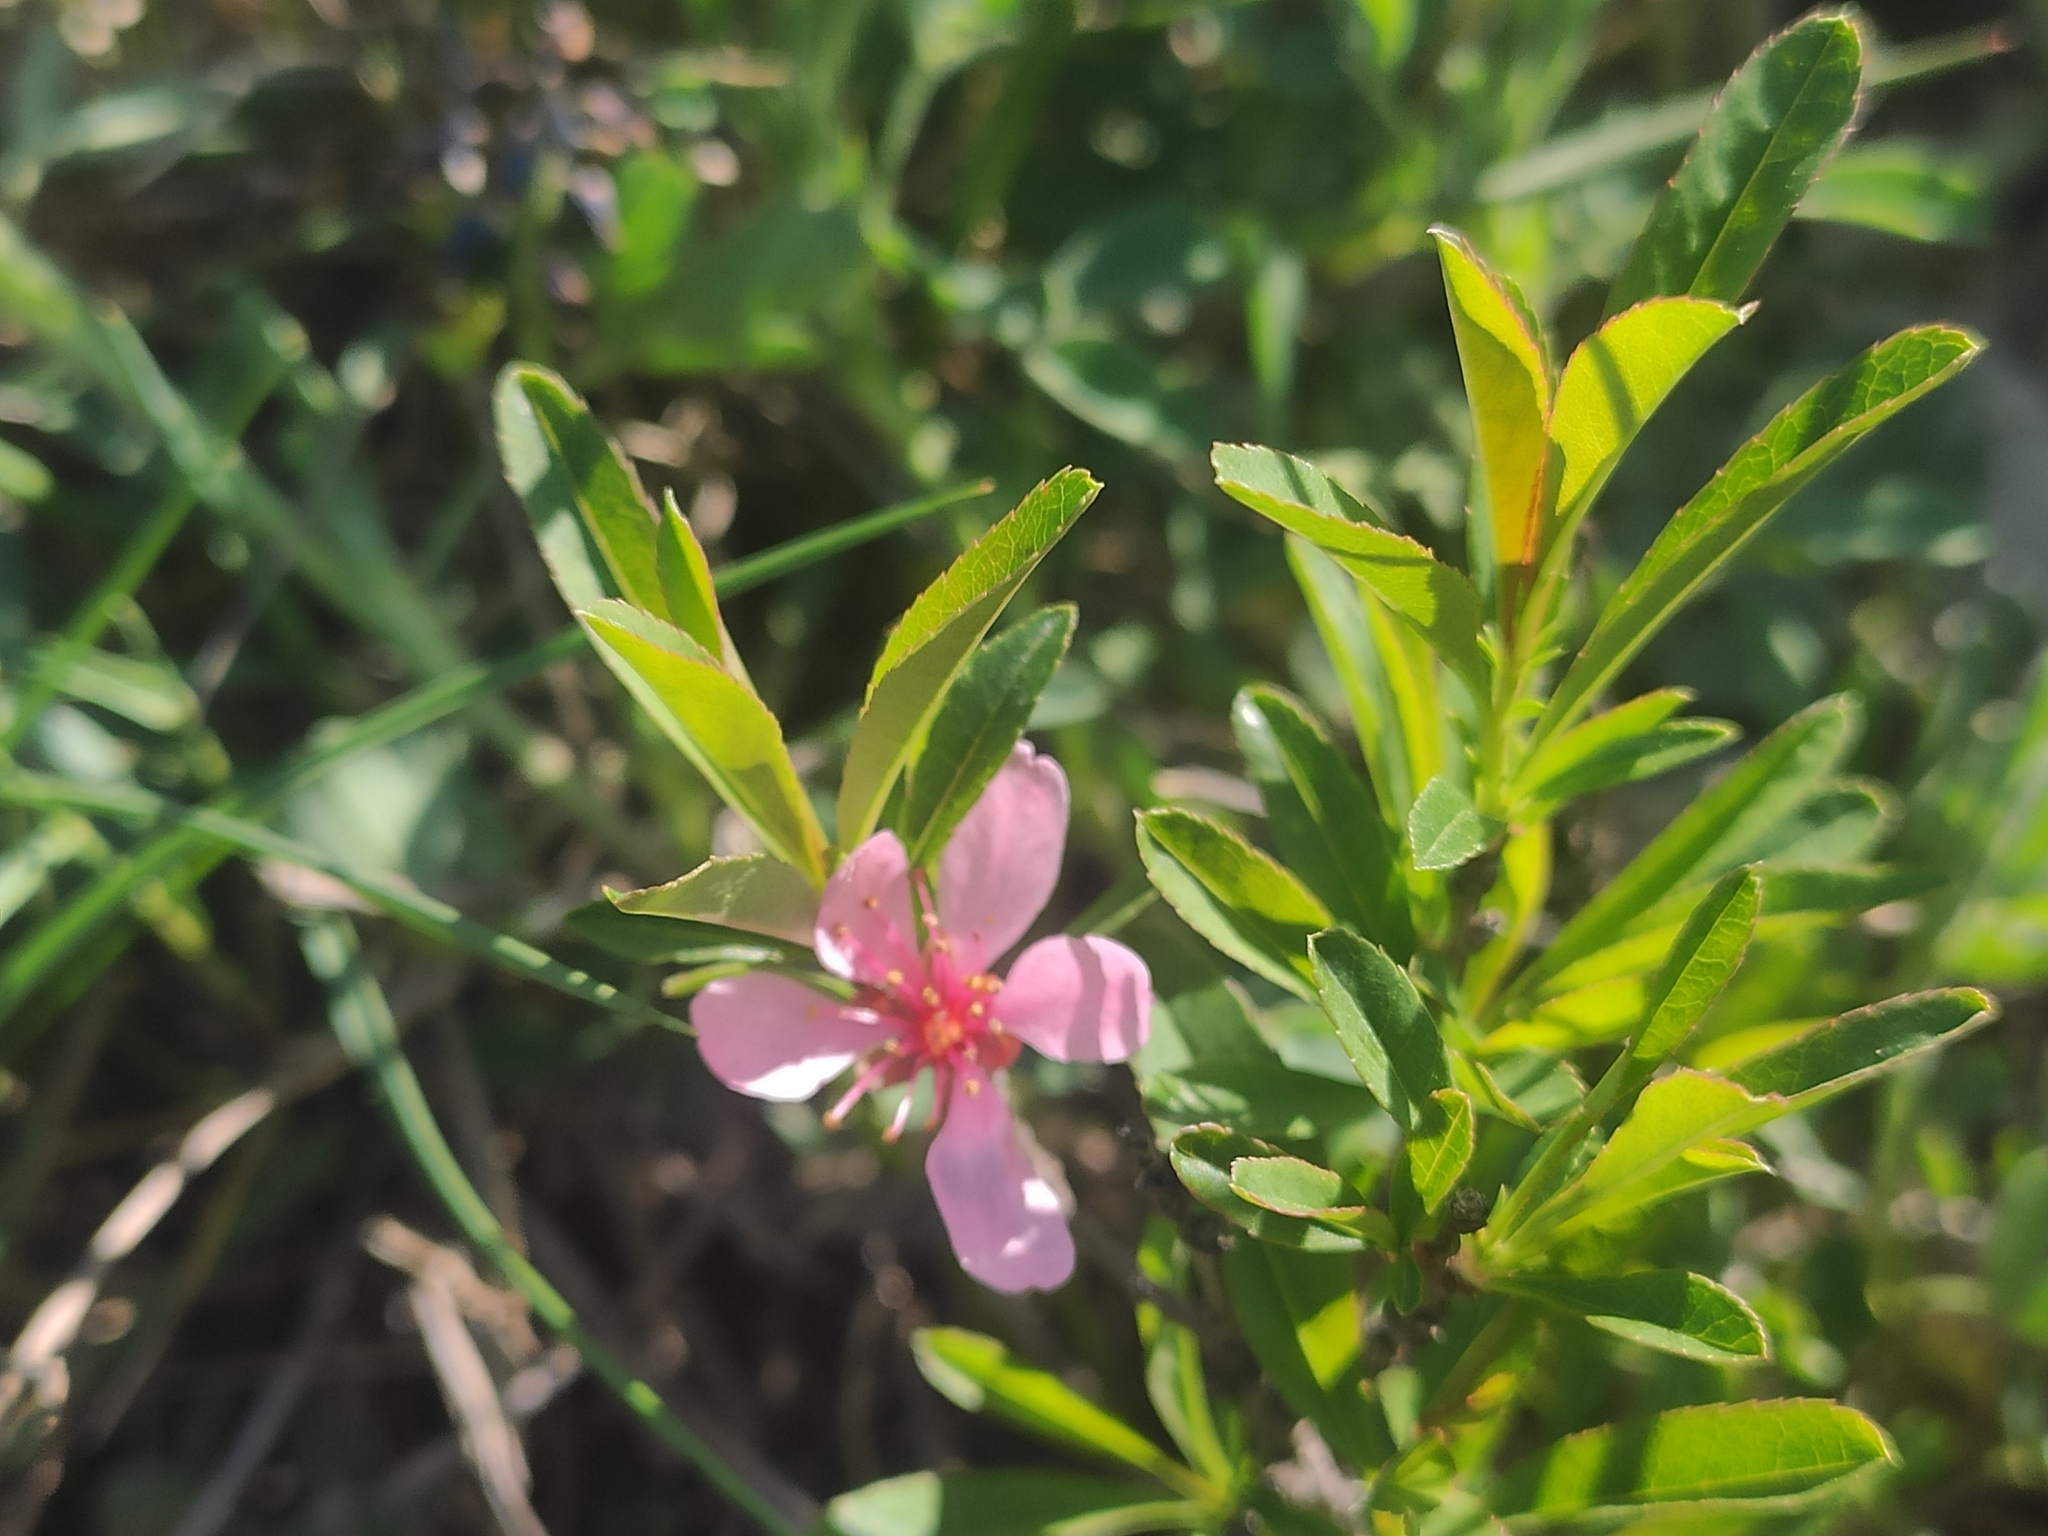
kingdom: Plantae
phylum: Tracheophyta
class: Magnoliopsida
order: Rosales
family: Rosaceae
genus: Prunus
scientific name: Prunus tenella
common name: Dwarf russian almond
